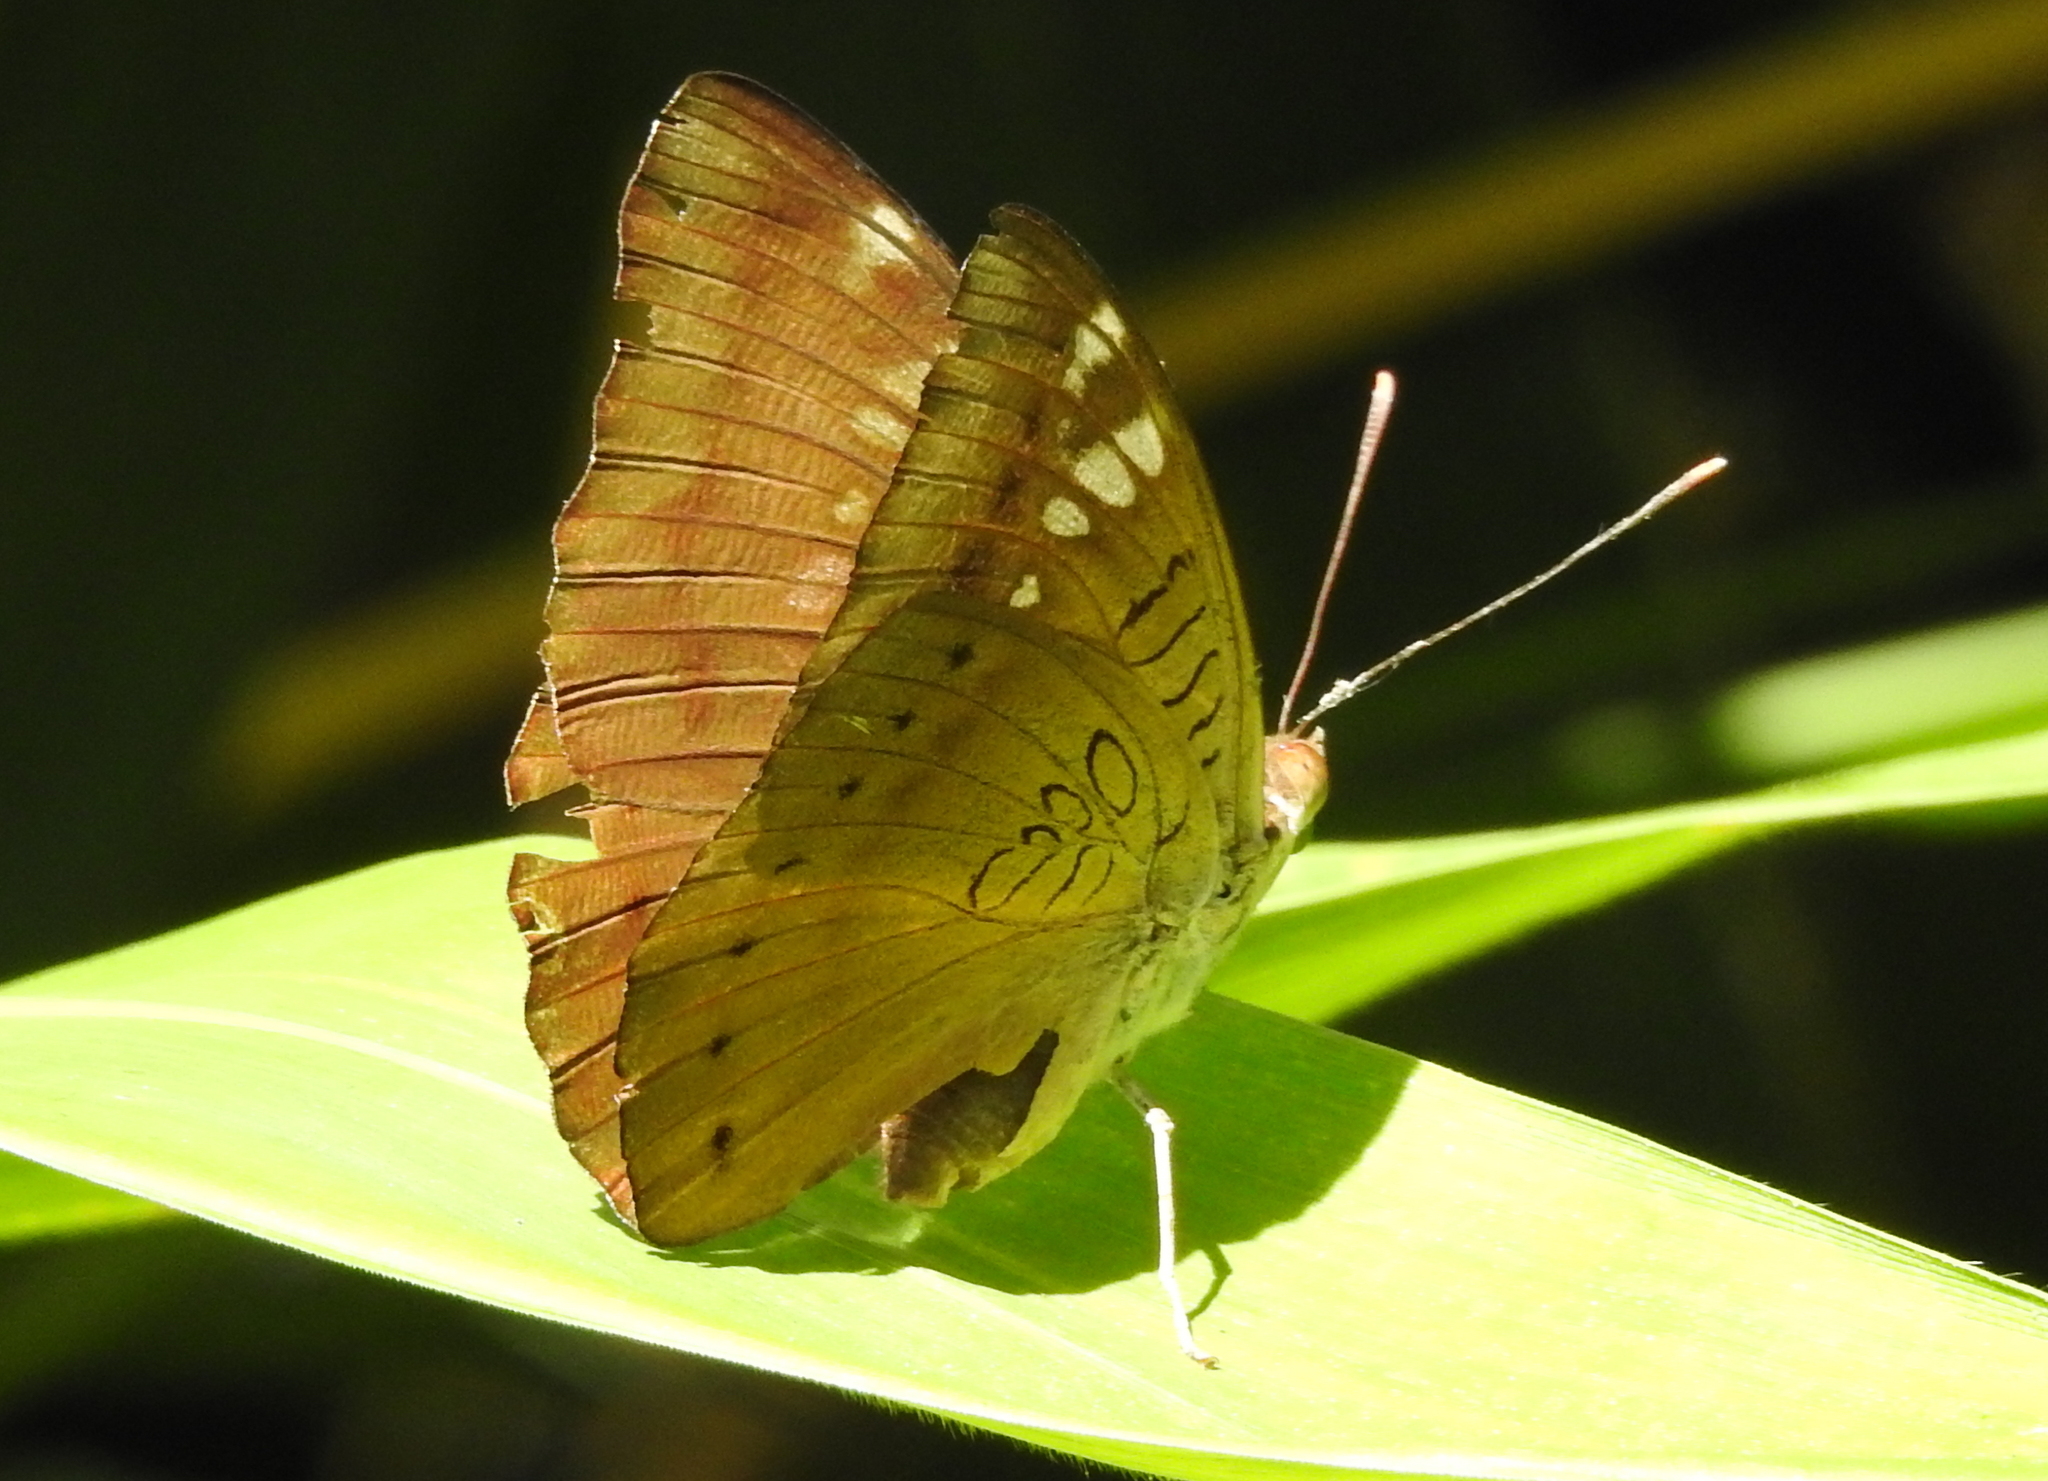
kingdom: Animalia
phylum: Arthropoda
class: Insecta
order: Lepidoptera
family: Nymphalidae
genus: Euthalia
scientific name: Euthalia aconthea
